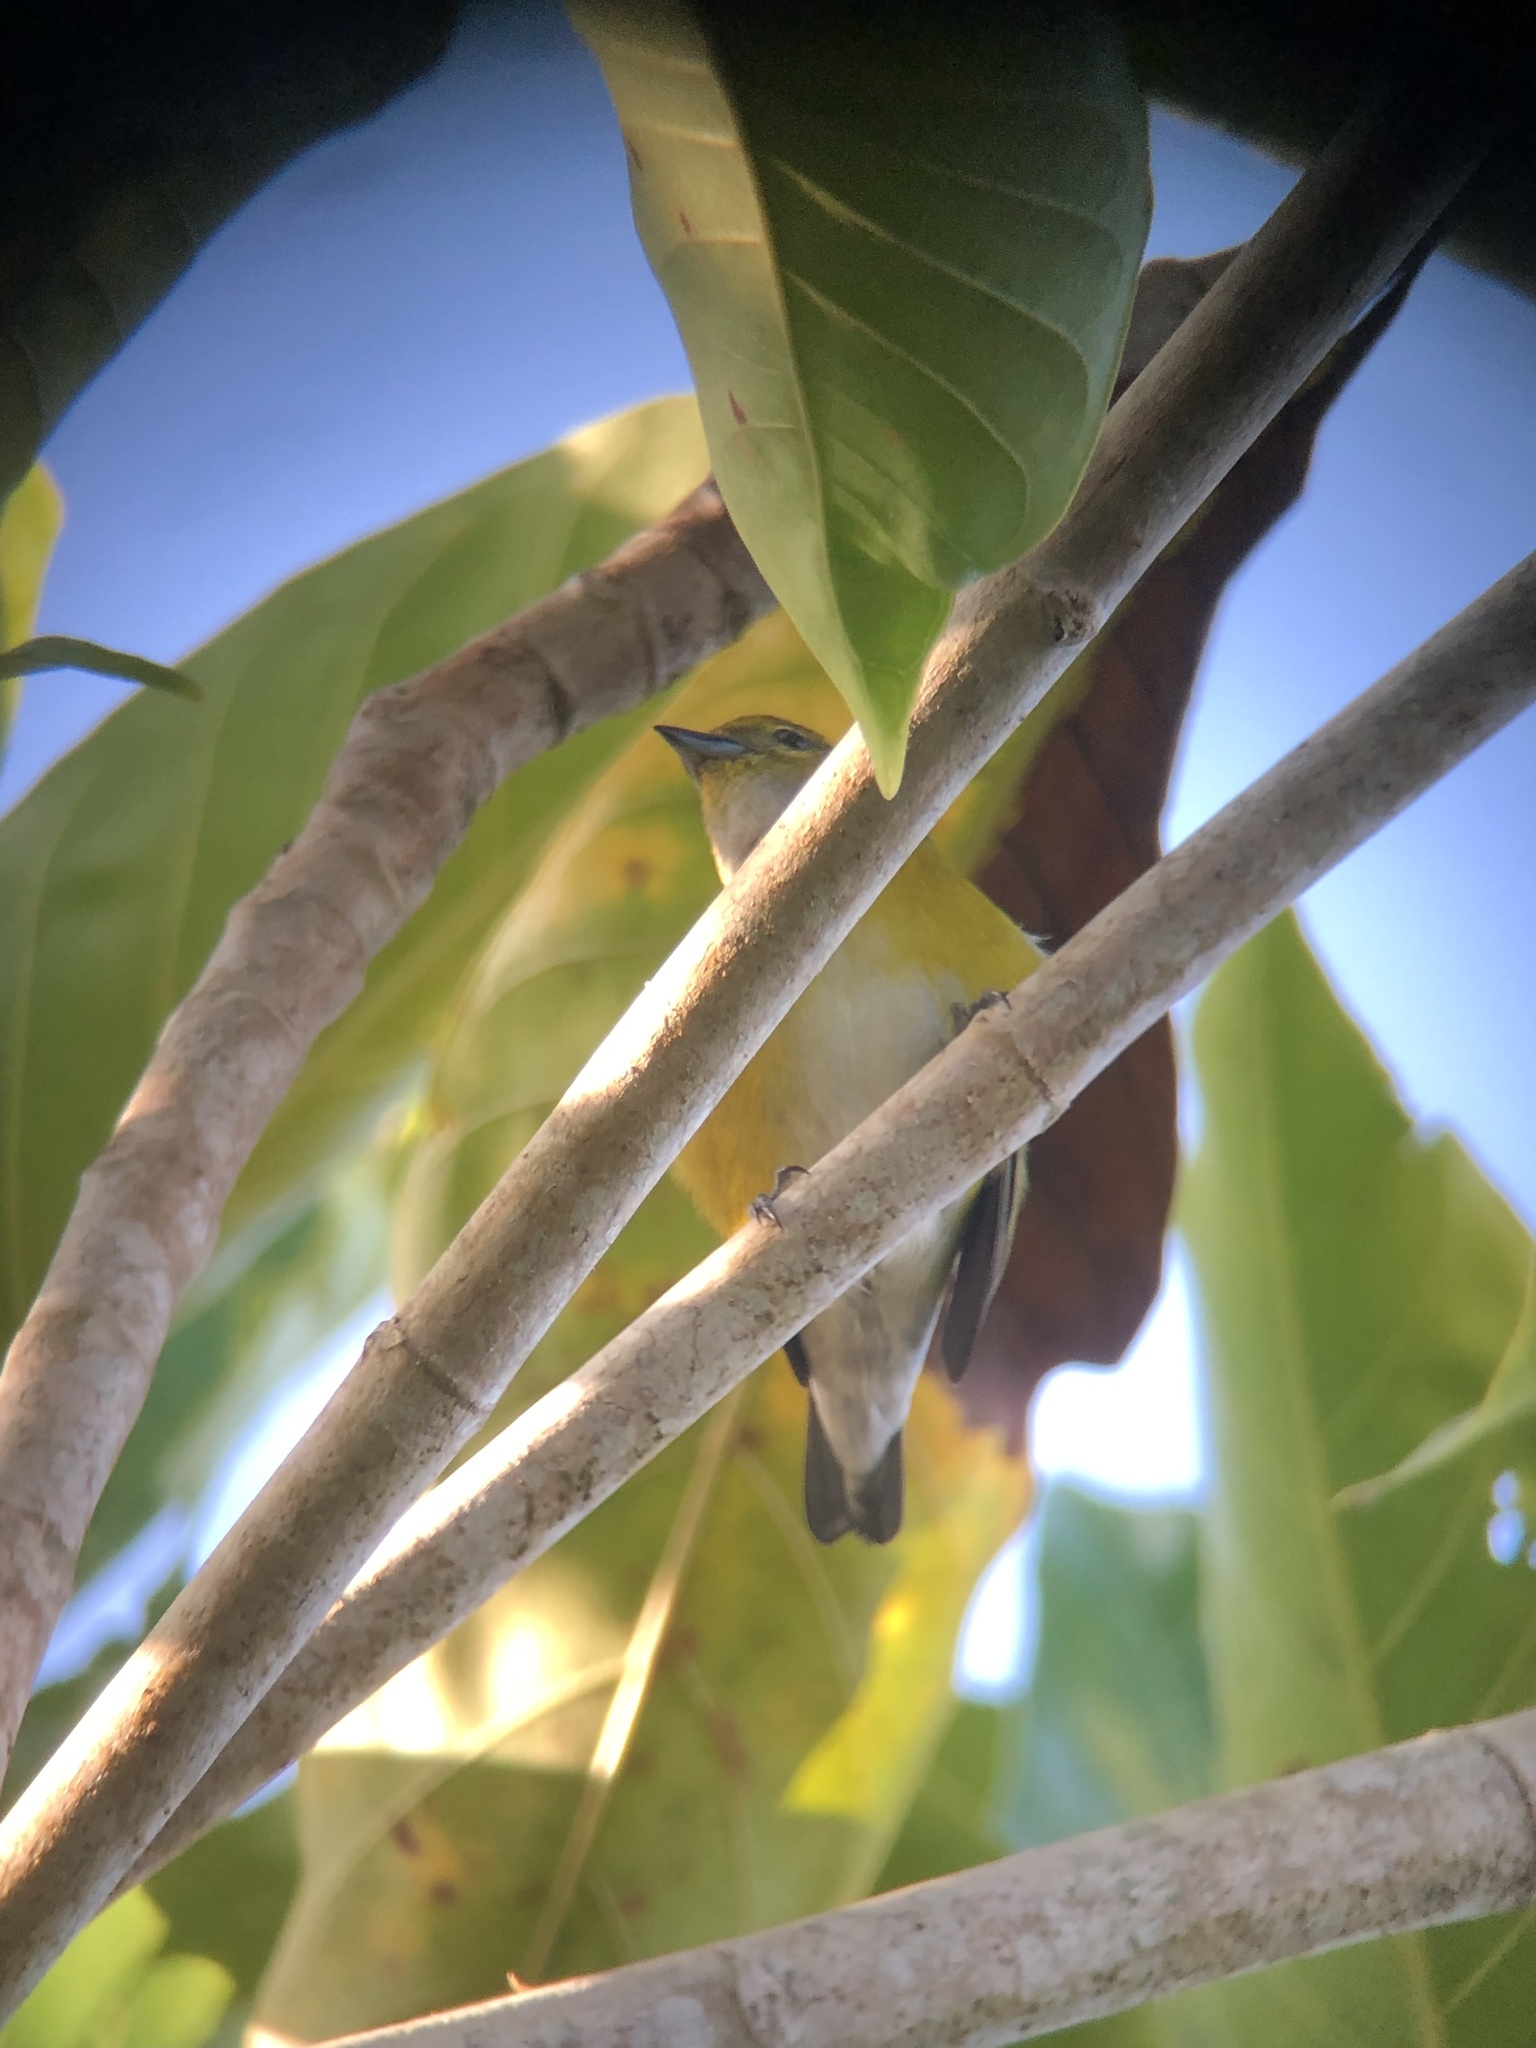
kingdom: Animalia
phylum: Chordata
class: Aves
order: Passeriformes
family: Fringillidae
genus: Euphonia
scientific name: Euphonia minuta
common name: White-vented euphonia
